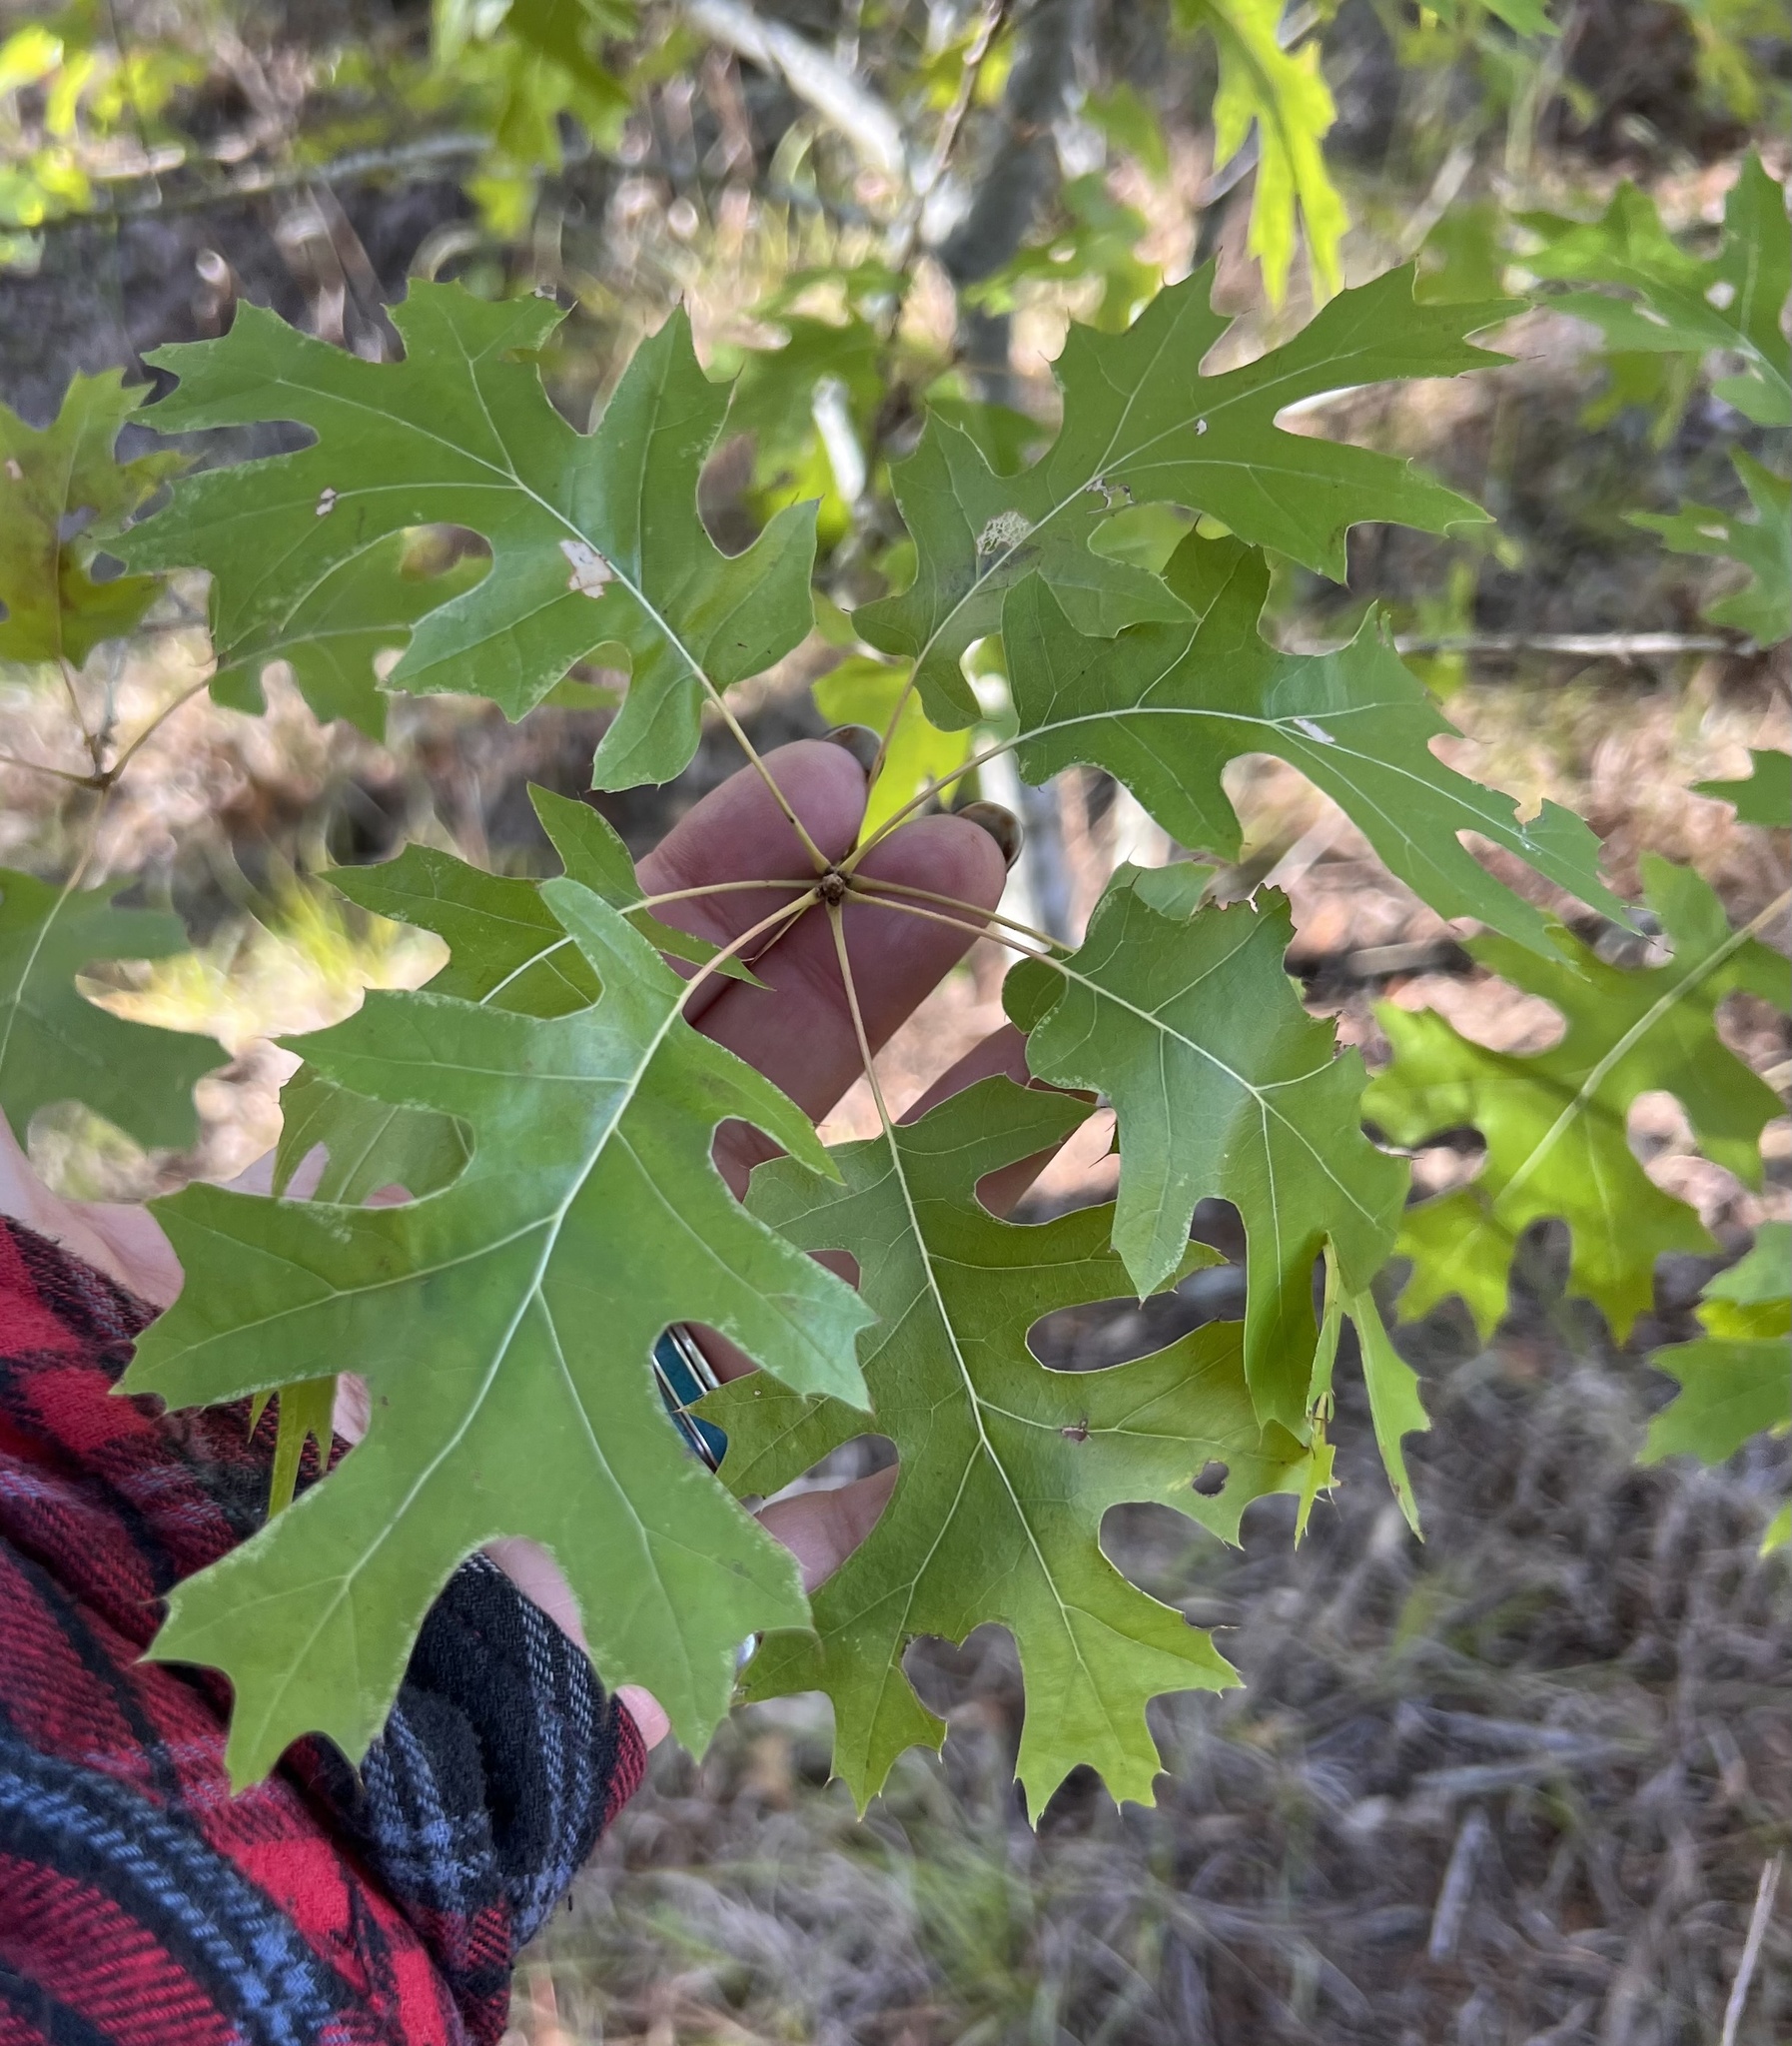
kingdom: Plantae
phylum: Tracheophyta
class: Magnoliopsida
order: Fagales
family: Fagaceae
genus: Quercus
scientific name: Quercus buckleyi
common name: Buckley oak
